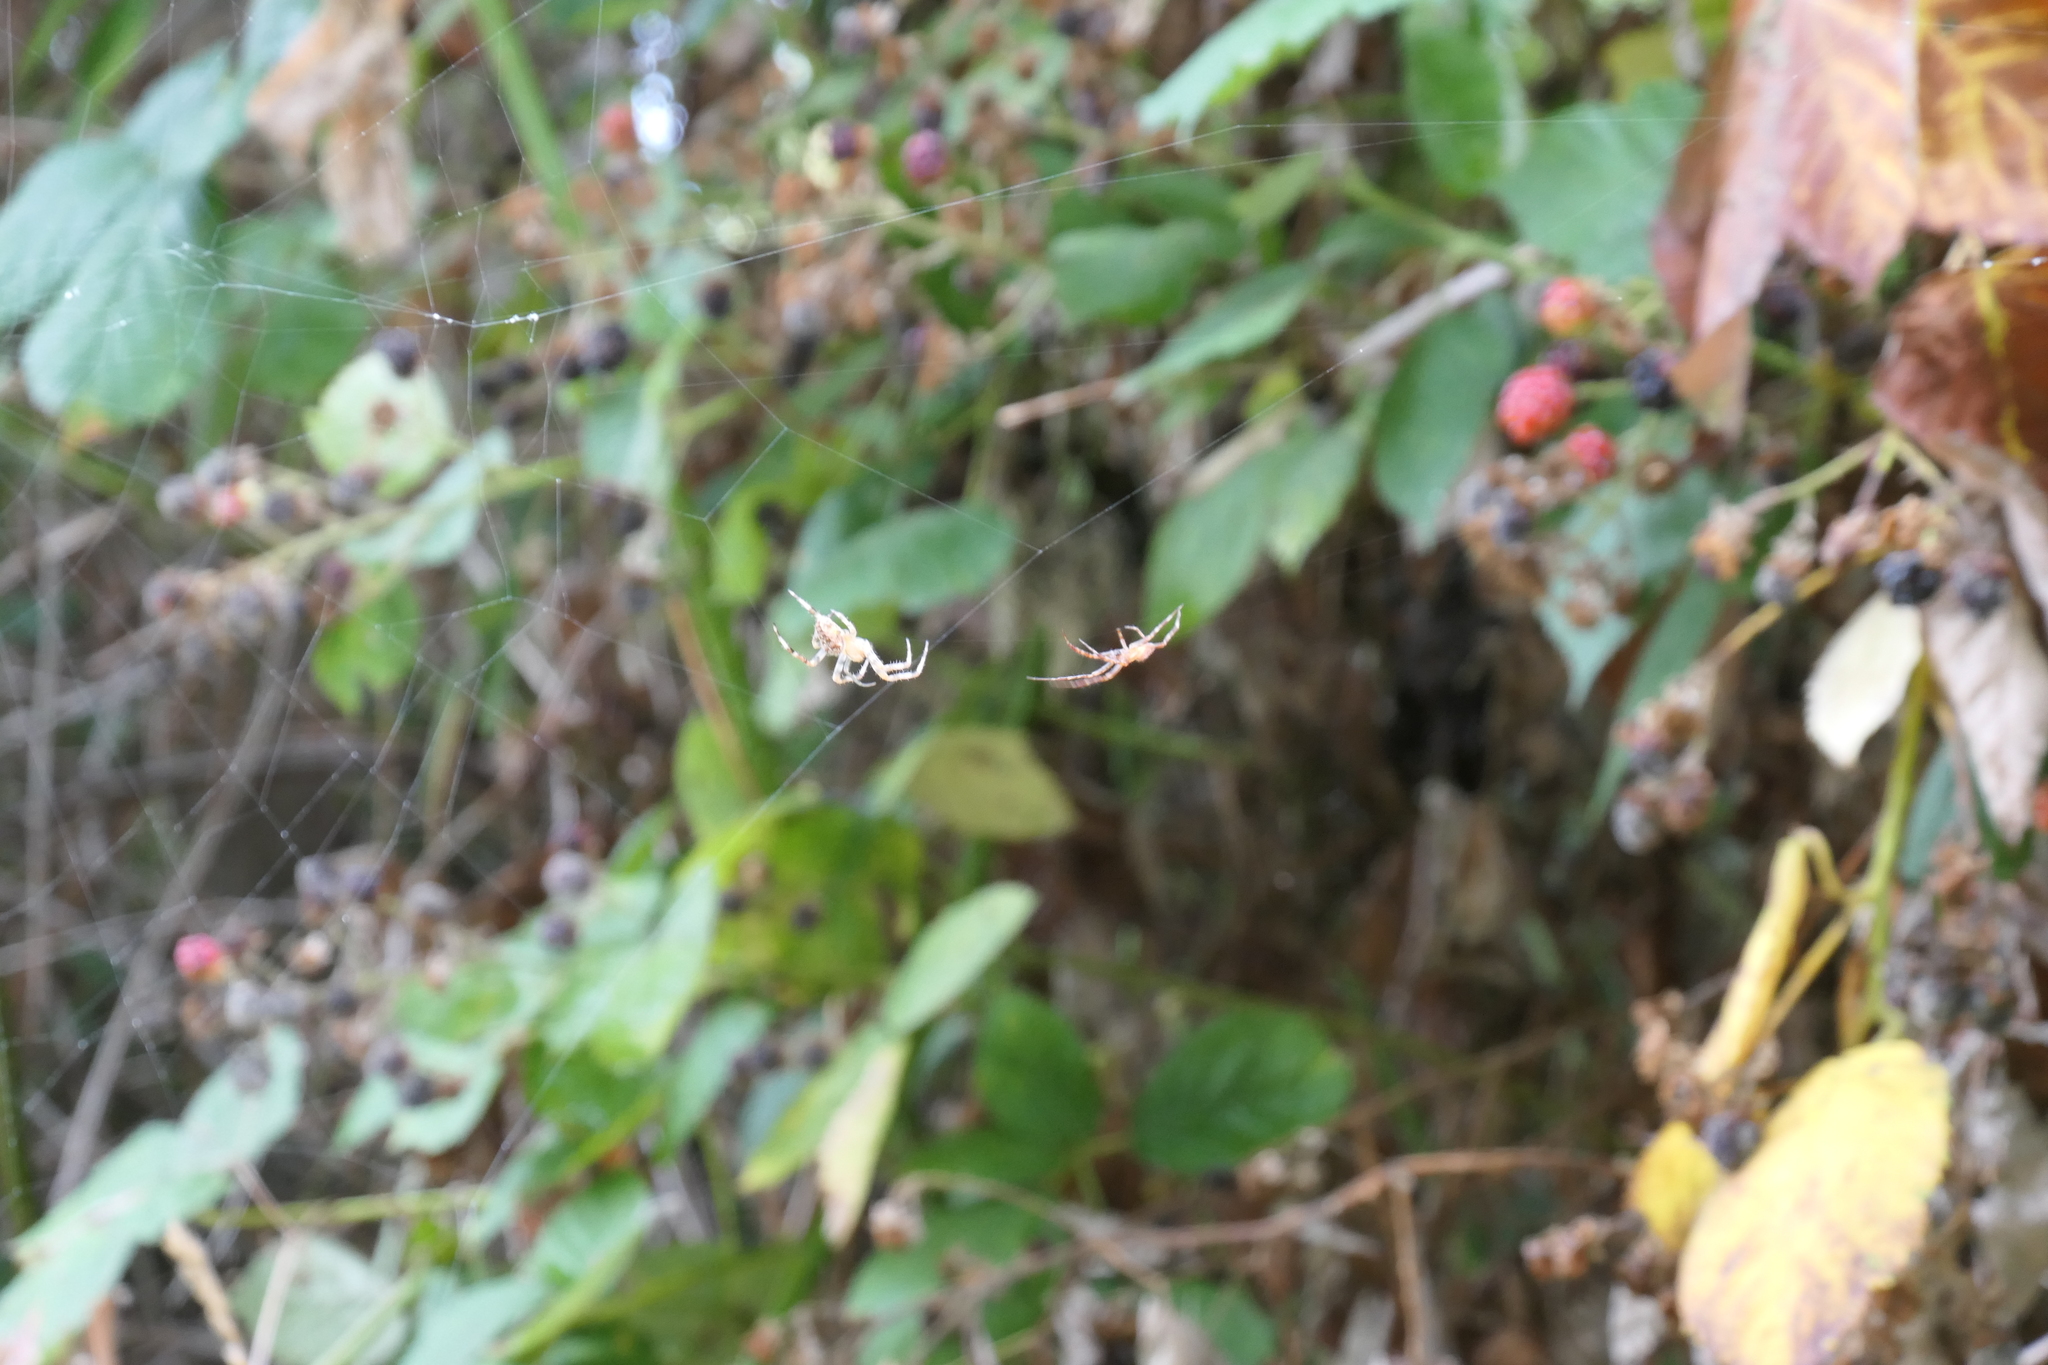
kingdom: Animalia
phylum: Arthropoda
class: Arachnida
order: Araneae
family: Araneidae
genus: Araneus
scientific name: Araneus diadematus
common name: Cross orbweaver
